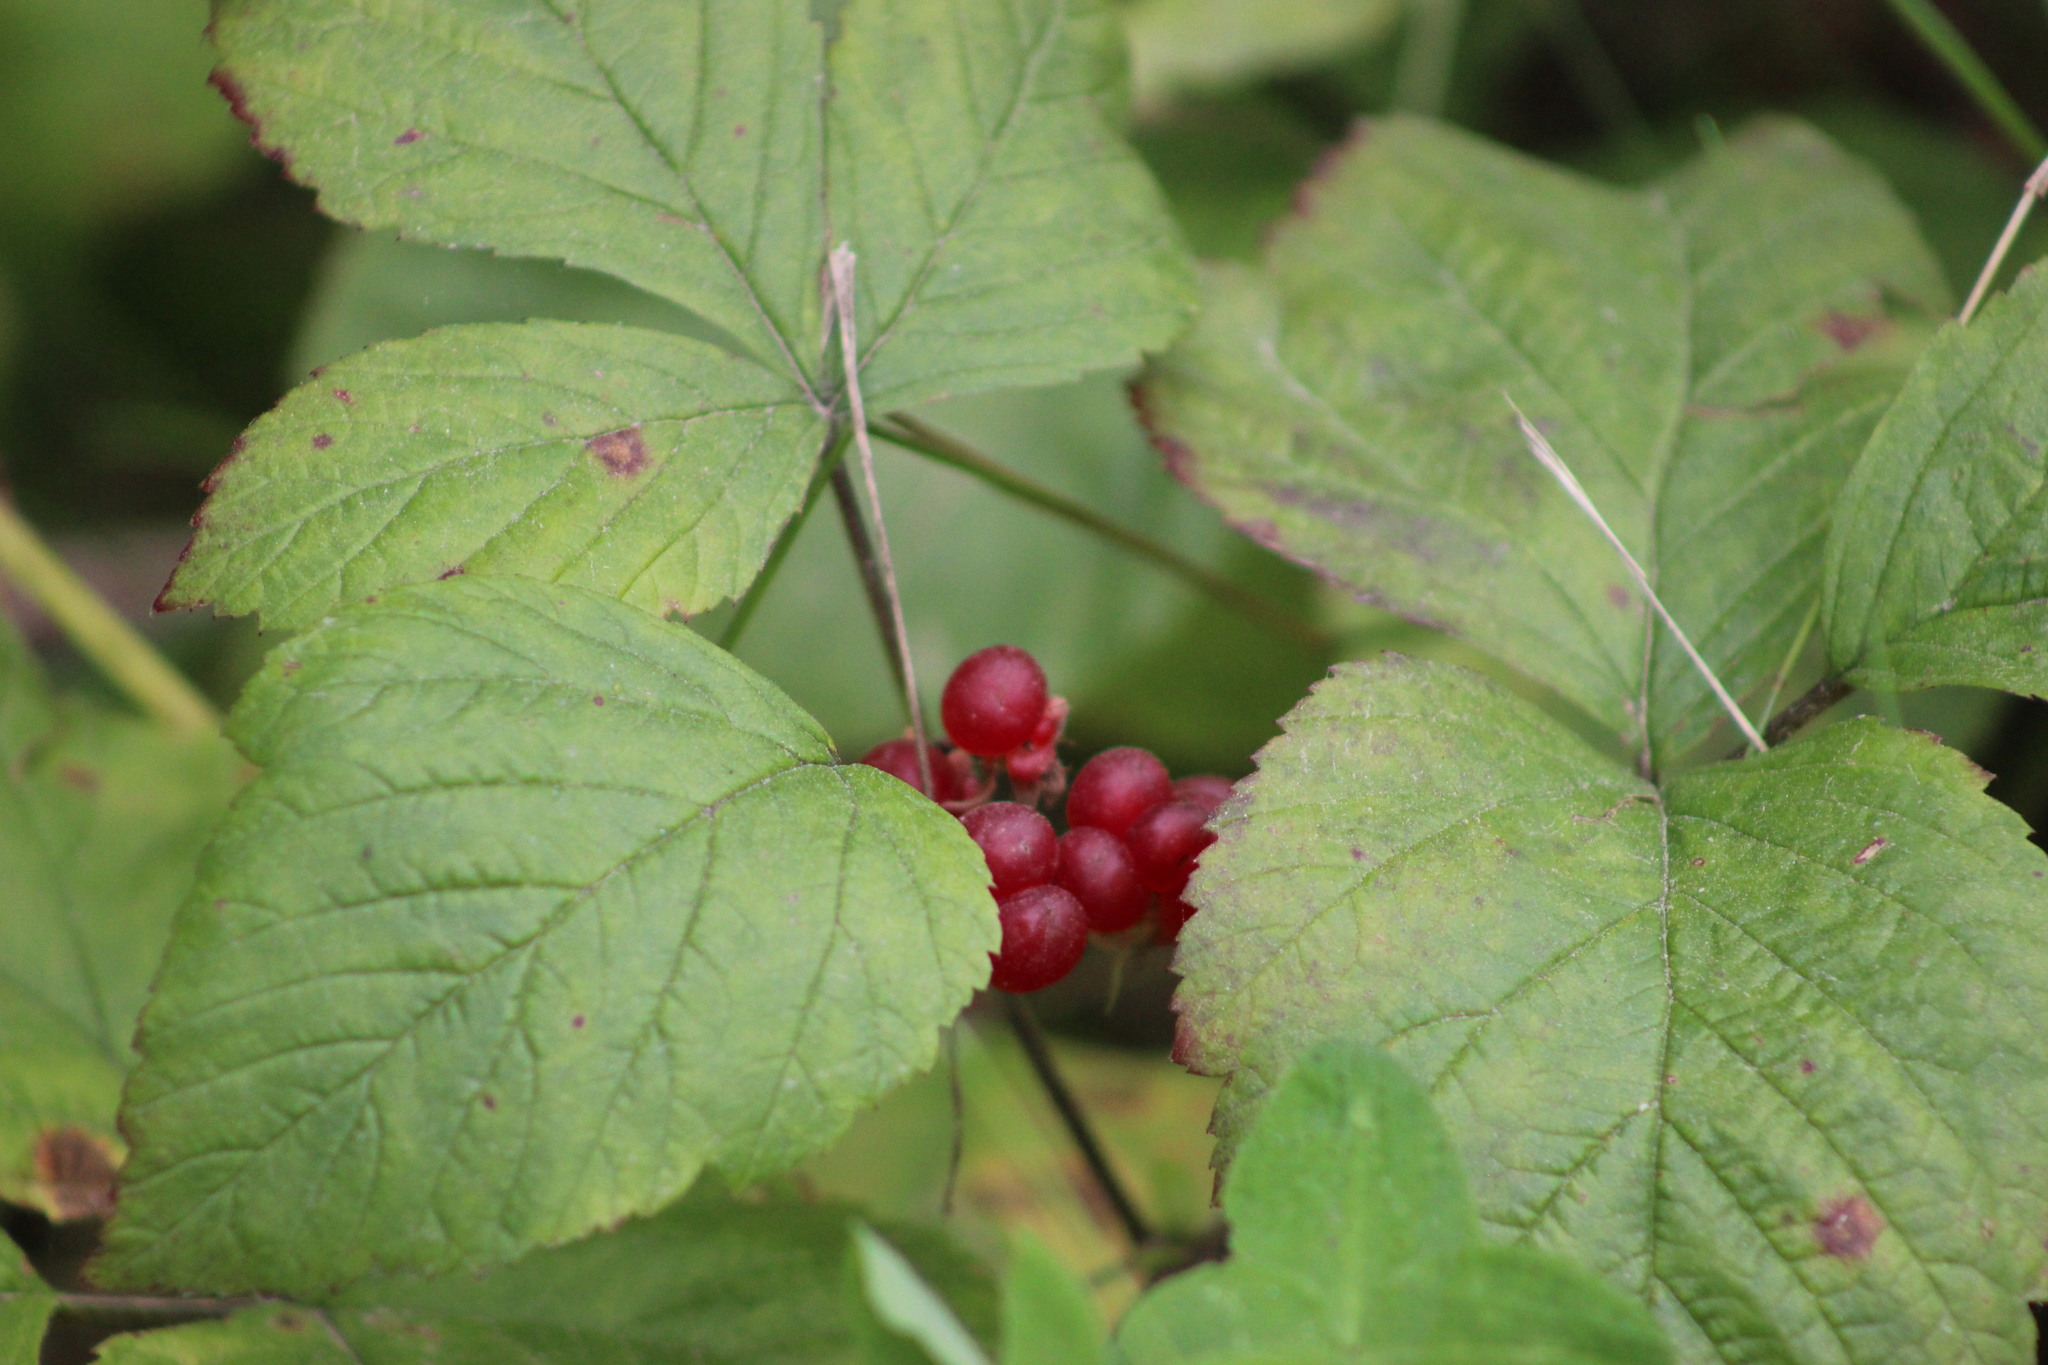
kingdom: Plantae
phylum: Tracheophyta
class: Magnoliopsida
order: Rosales
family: Rosaceae
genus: Rubus
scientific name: Rubus saxatilis
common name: Stone bramble
